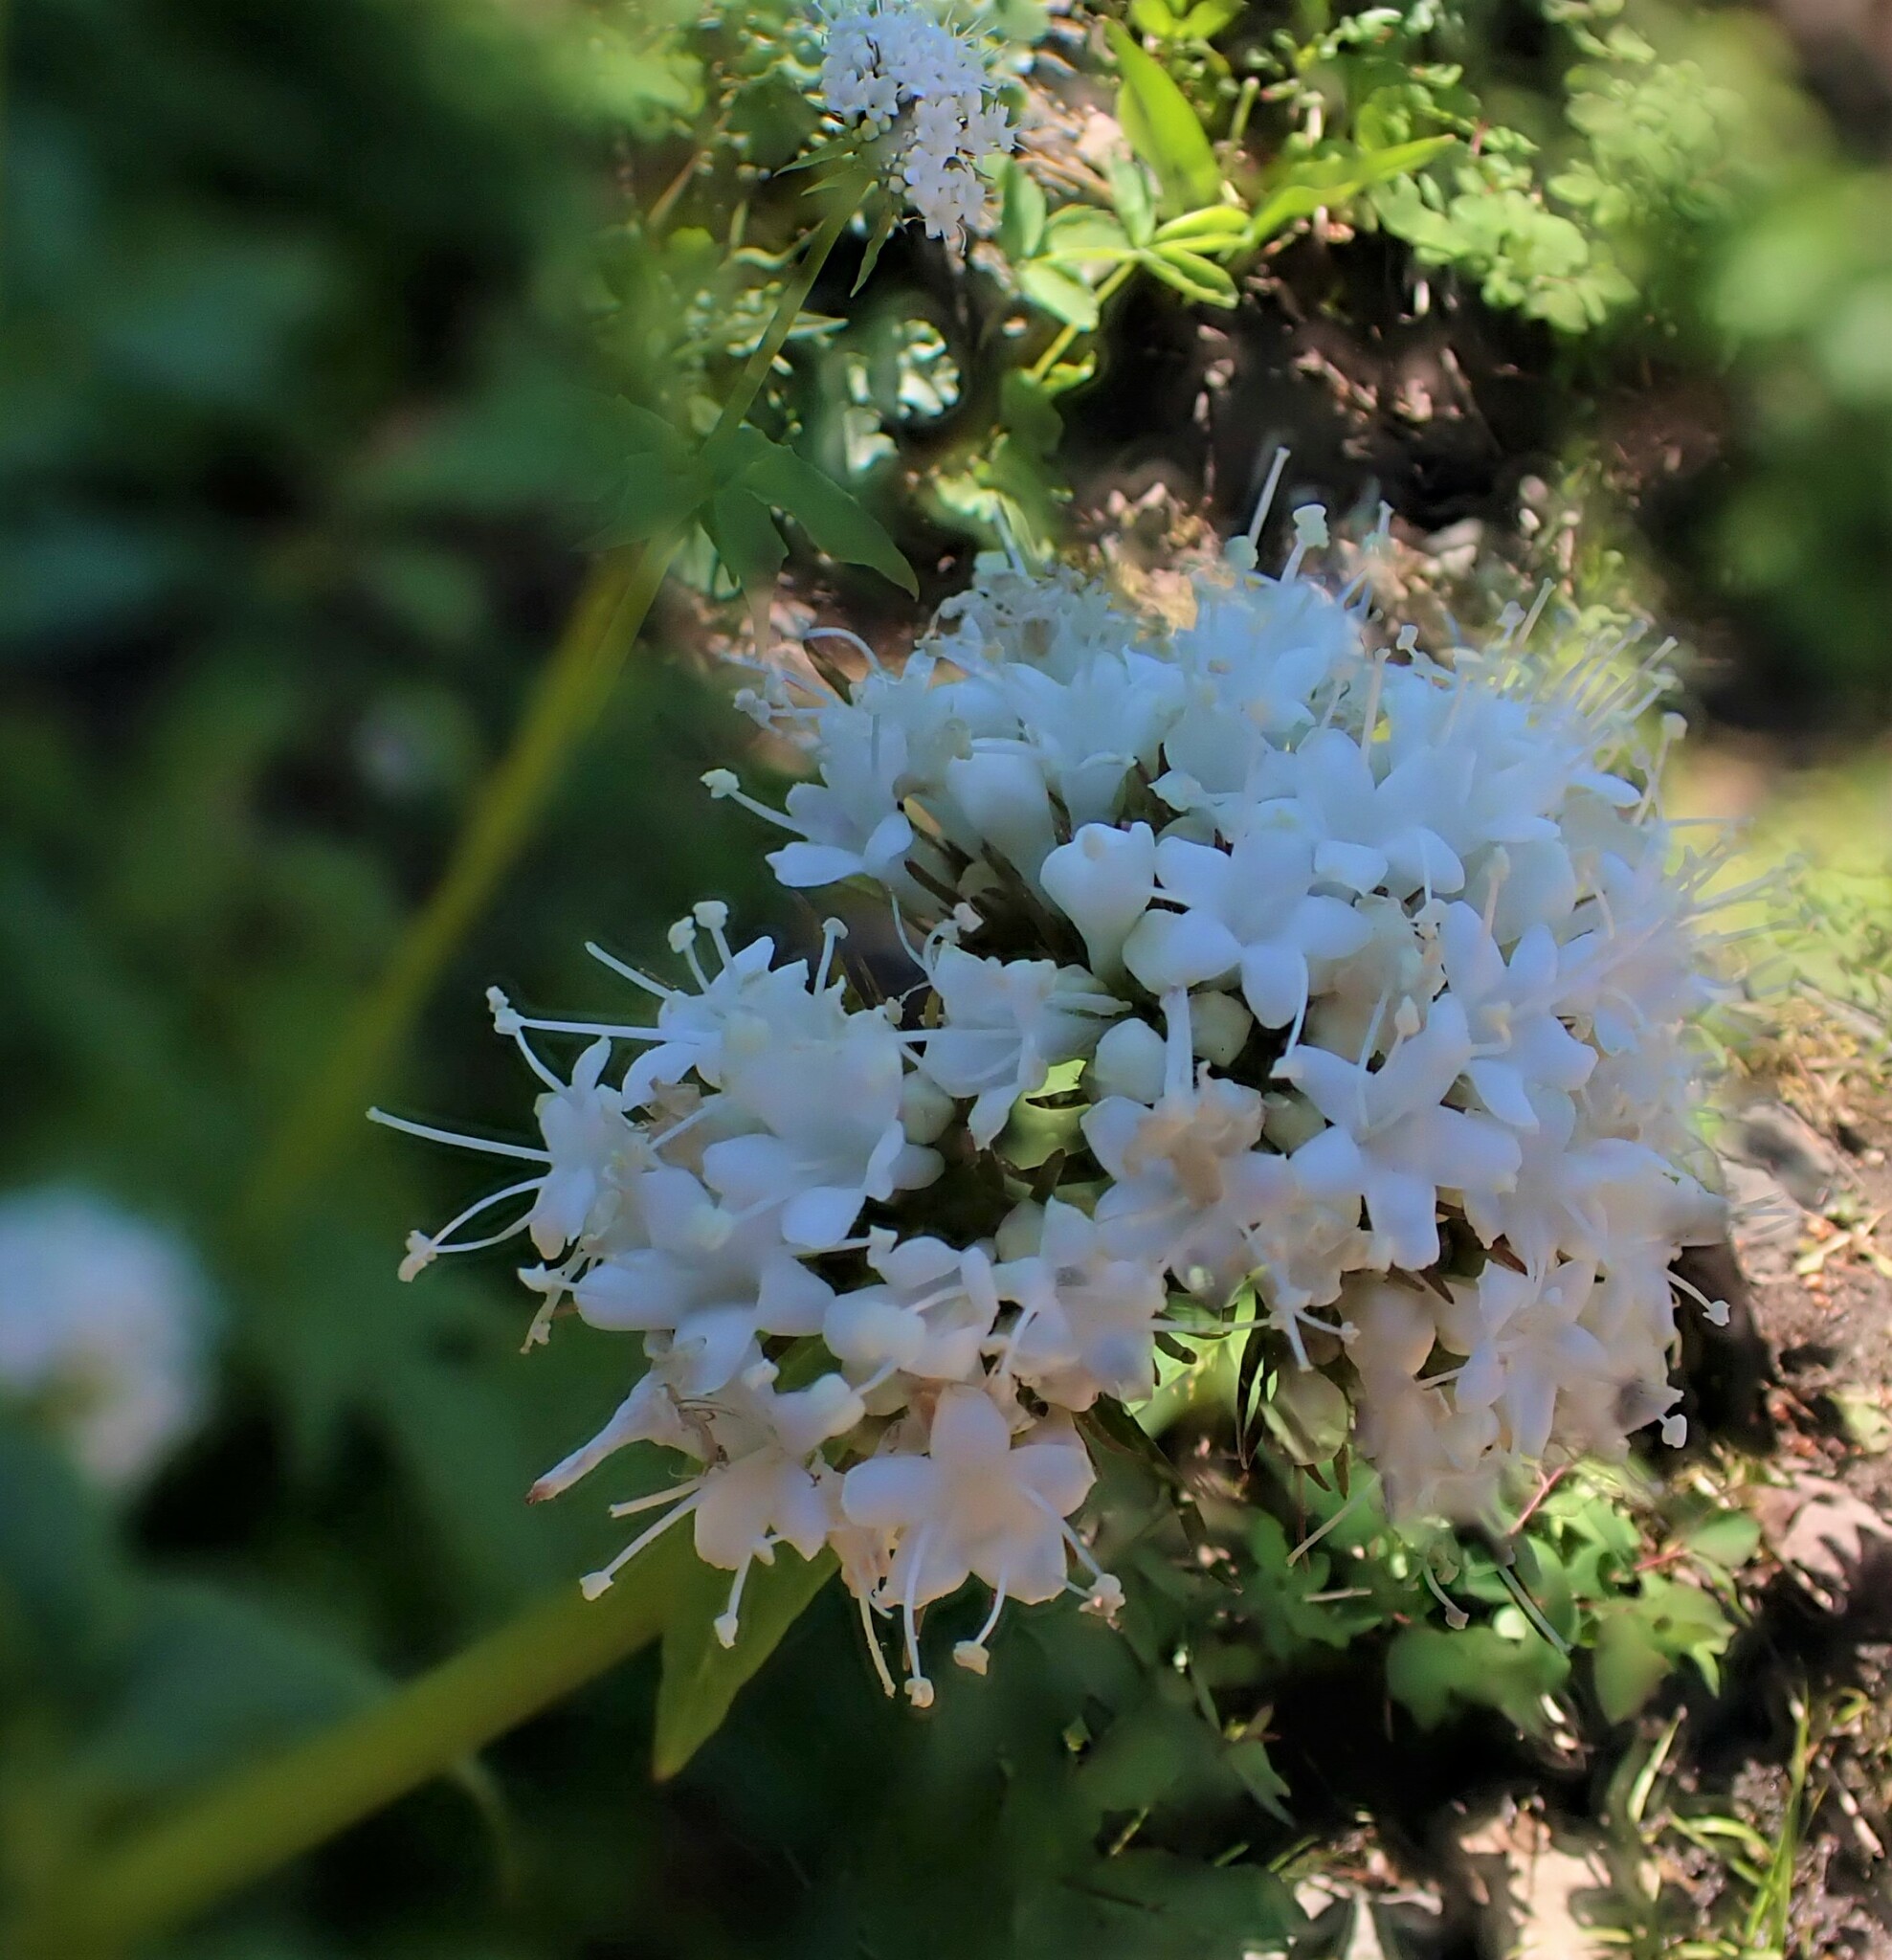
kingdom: Plantae
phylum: Tracheophyta
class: Magnoliopsida
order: Dipsacales
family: Caprifoliaceae
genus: Valeriana
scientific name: Valeriana sitchensis
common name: Pacific valerian
